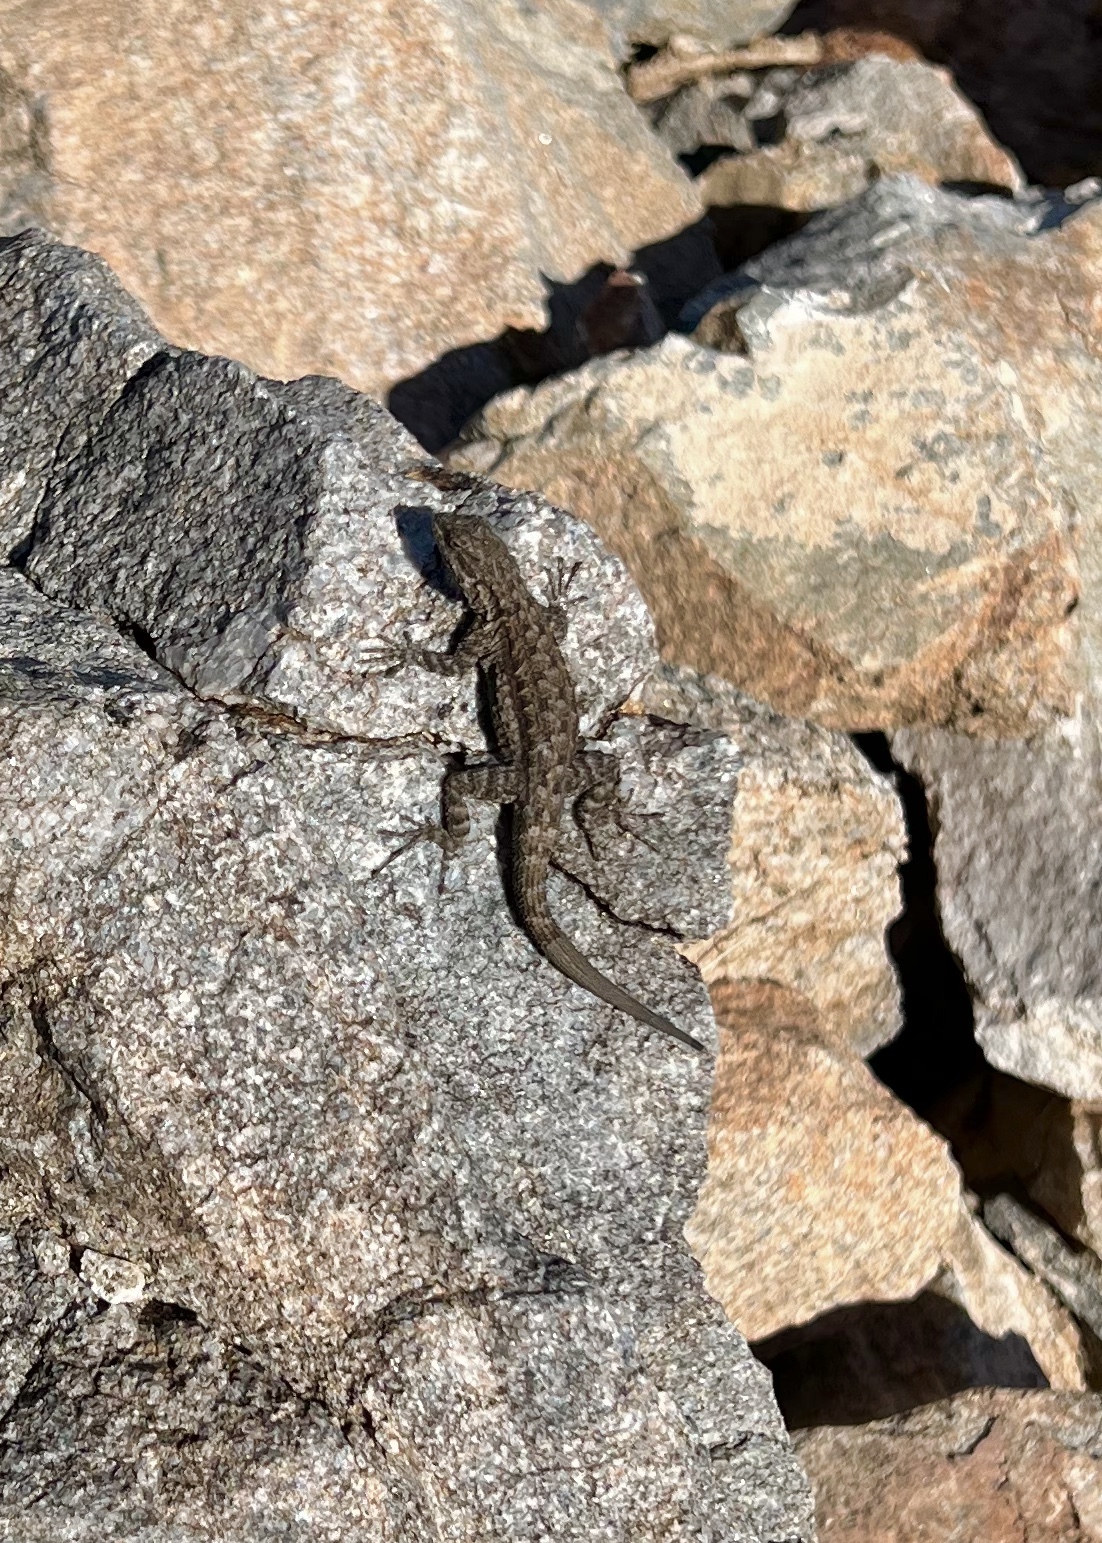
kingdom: Animalia
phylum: Chordata
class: Squamata
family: Phrynosomatidae
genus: Urosaurus
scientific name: Urosaurus ornatus
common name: Ornate tree lizard
